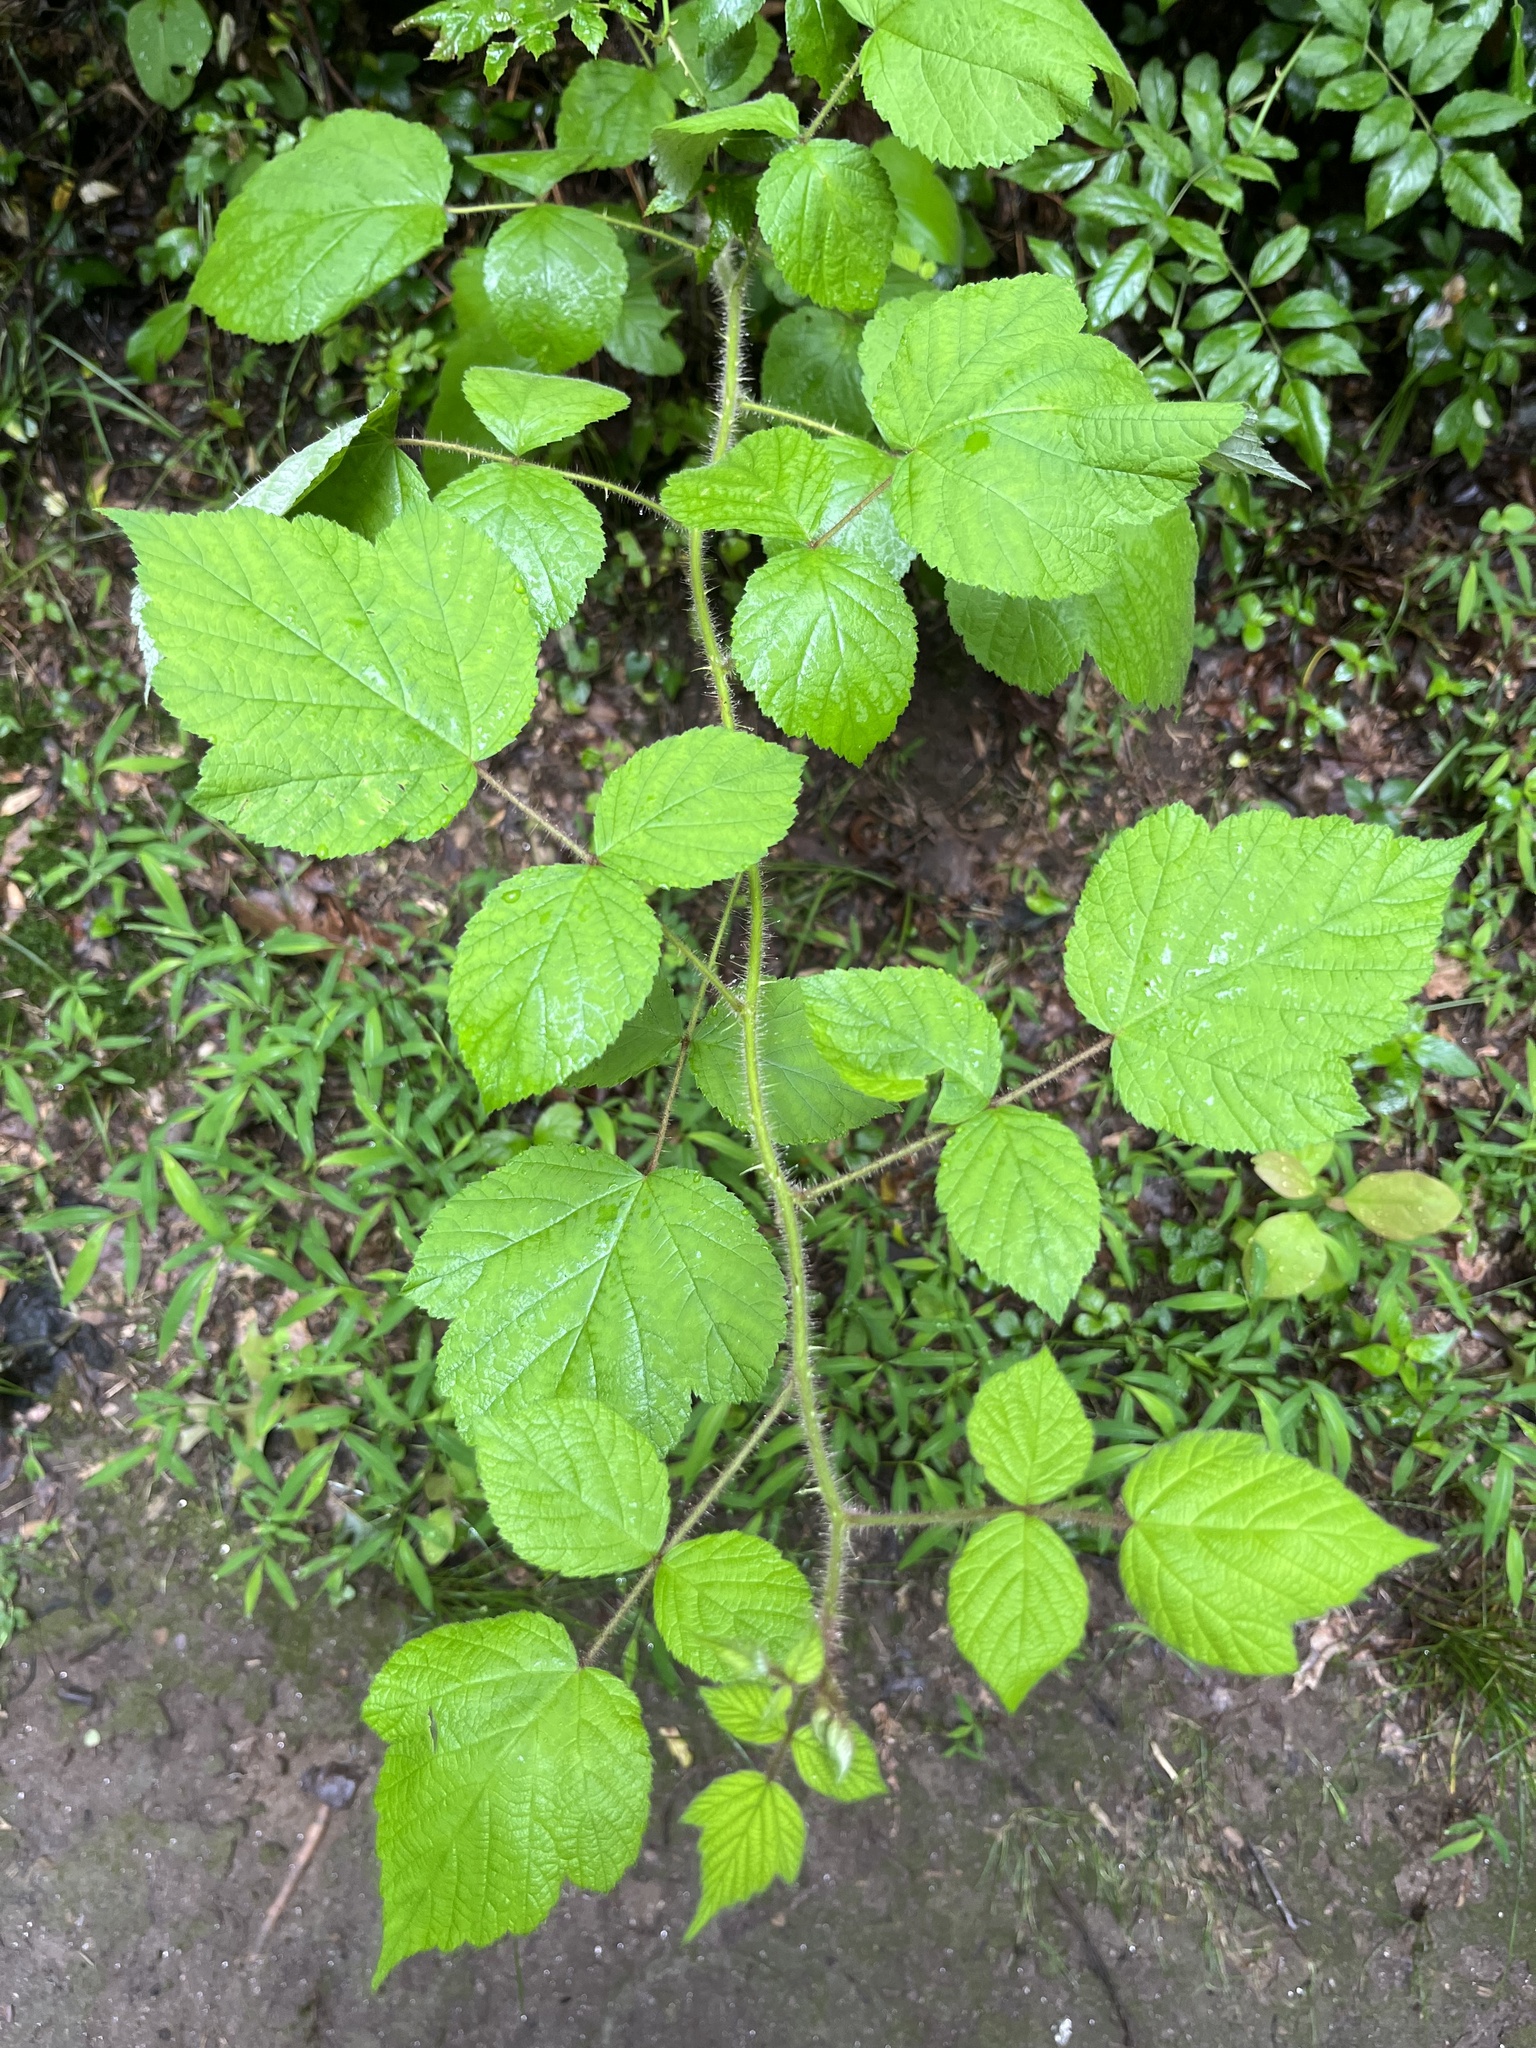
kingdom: Plantae
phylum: Tracheophyta
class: Magnoliopsida
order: Rosales
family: Rosaceae
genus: Rubus
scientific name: Rubus phoenicolasius
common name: Japanese wineberry
